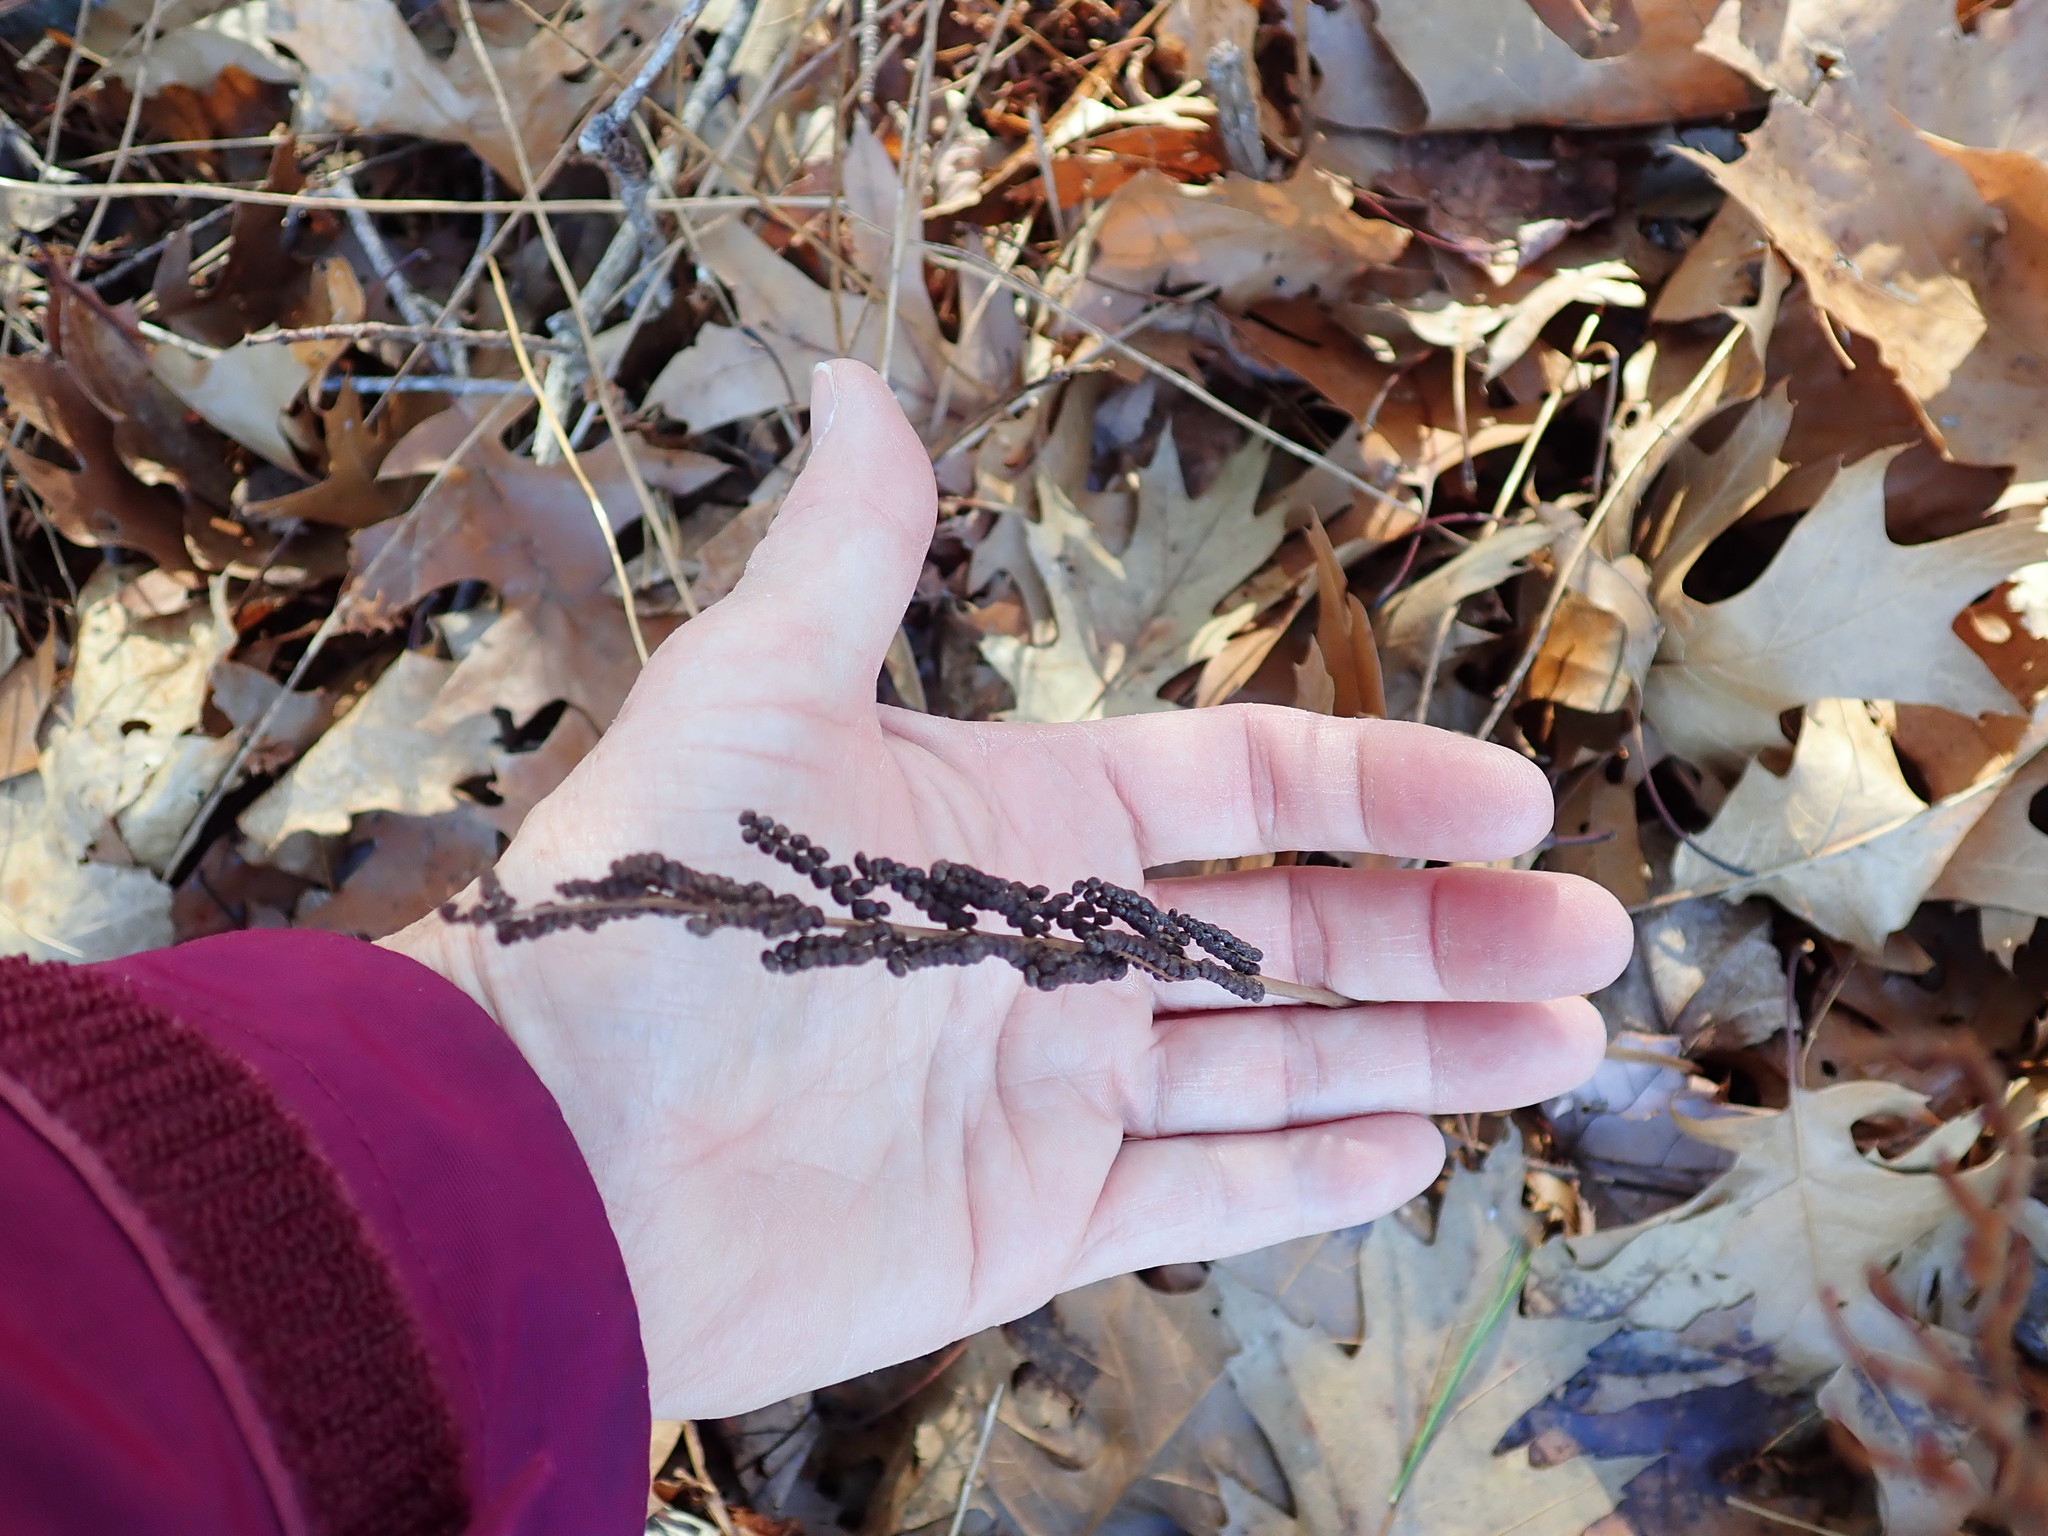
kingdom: Plantae
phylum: Tracheophyta
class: Polypodiopsida
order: Polypodiales
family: Onocleaceae
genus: Onoclea
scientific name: Onoclea sensibilis
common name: Sensitive fern
